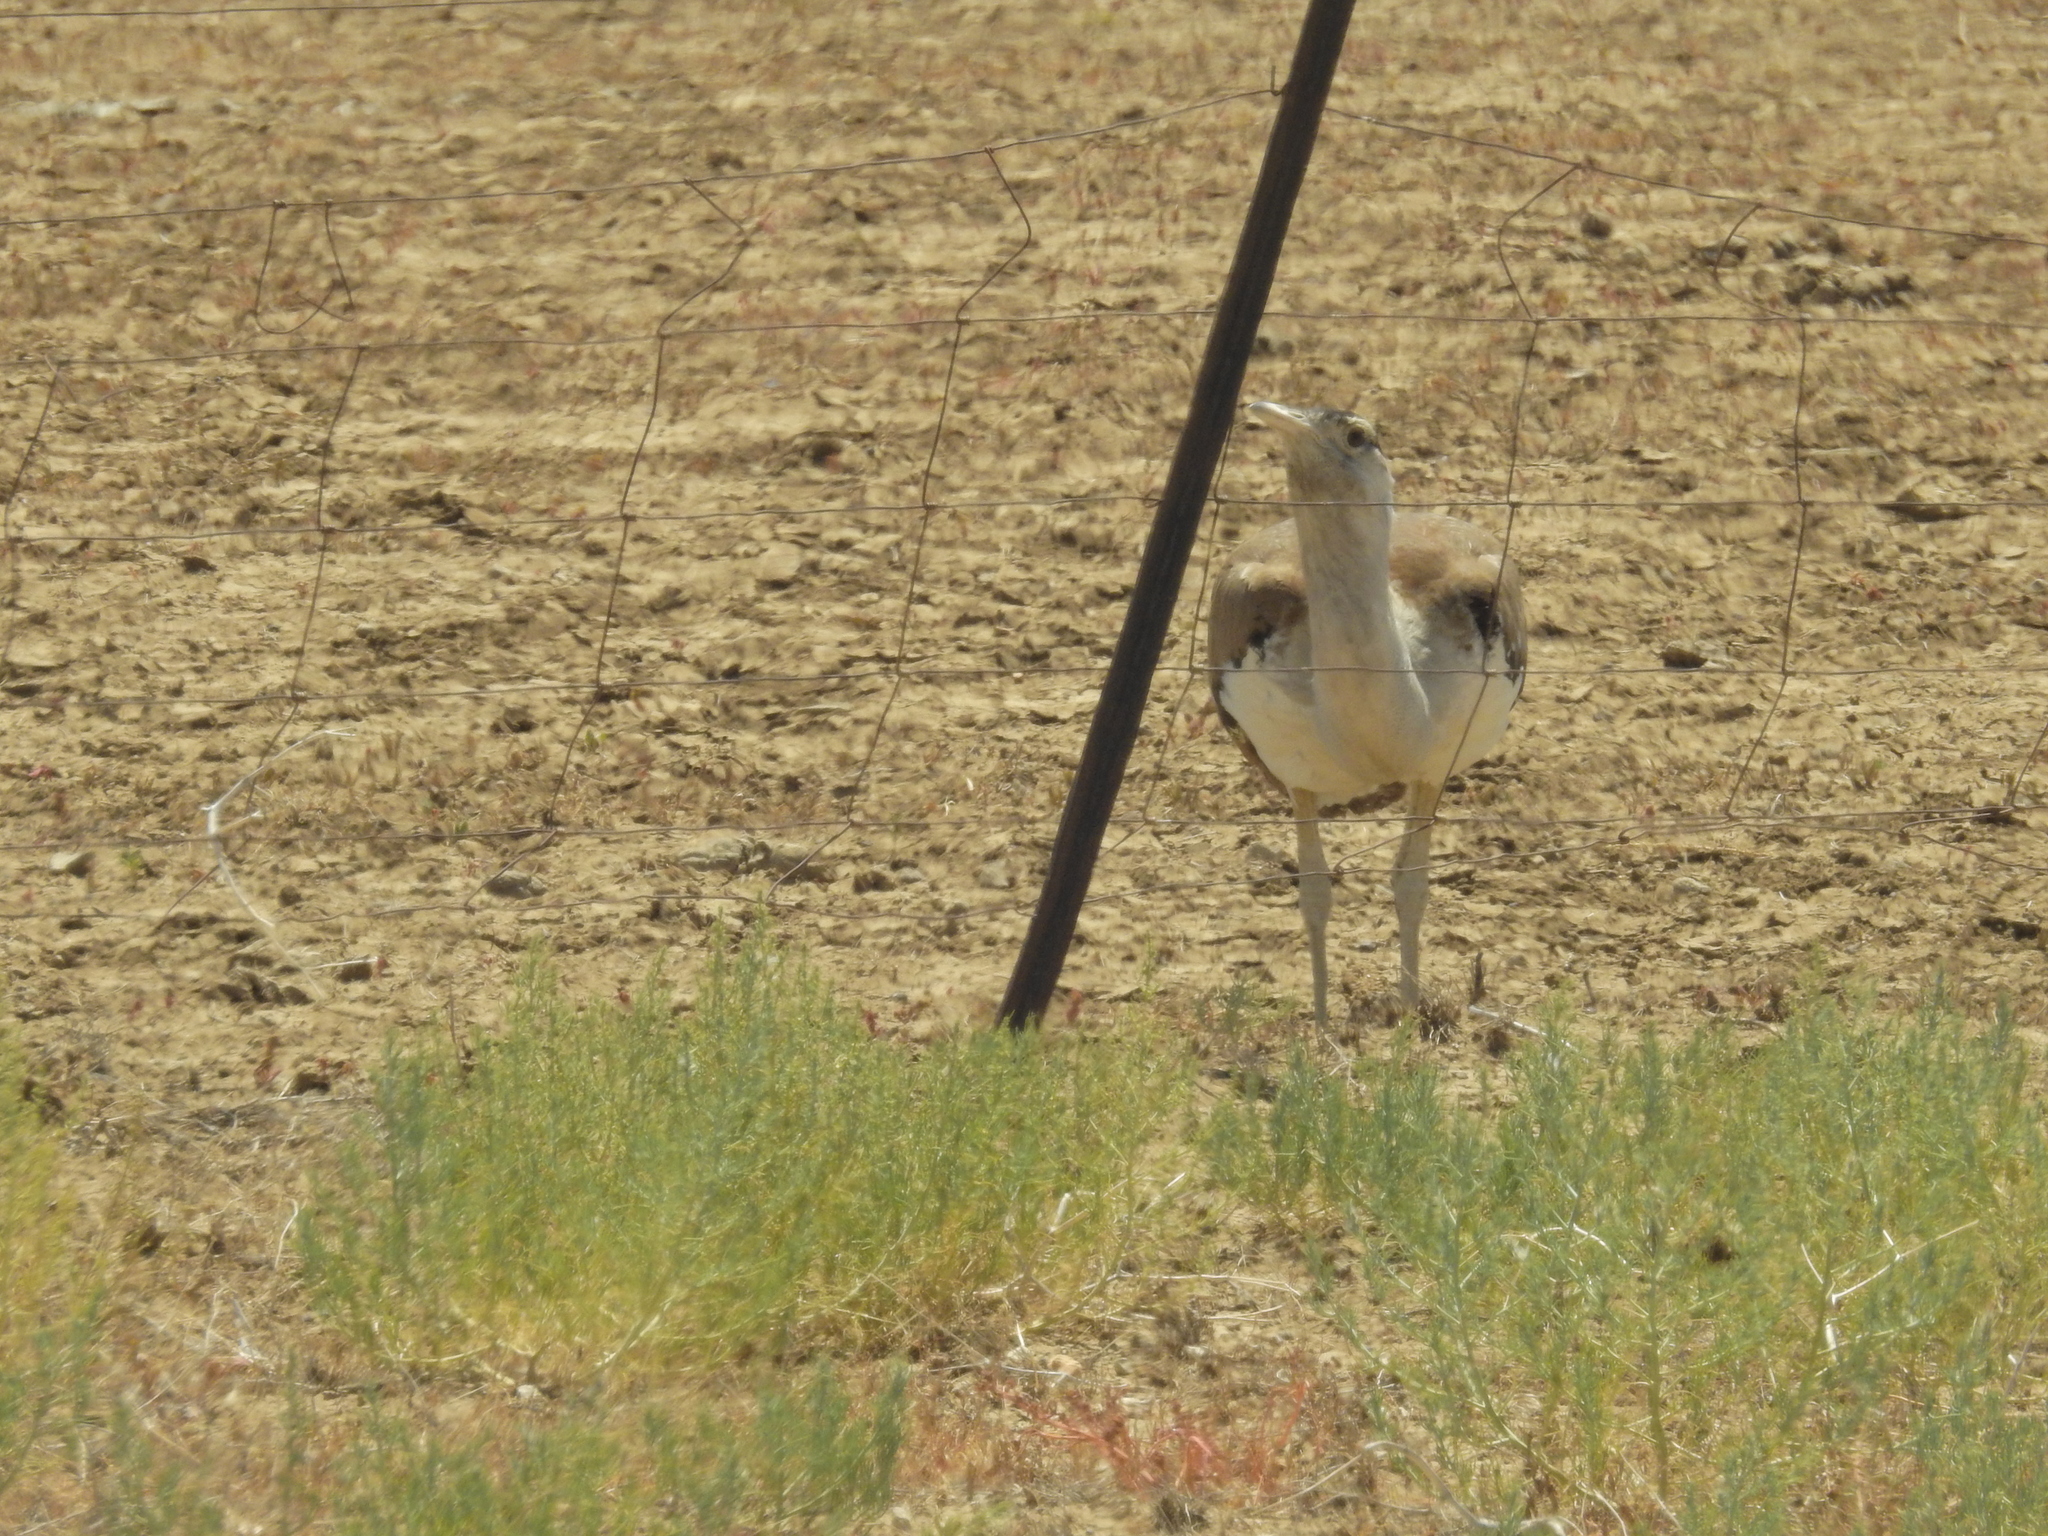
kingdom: Animalia
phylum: Chordata
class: Aves
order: Otidiformes
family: Otididae
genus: Ardeotis
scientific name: Ardeotis australis
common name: Australian bustard
